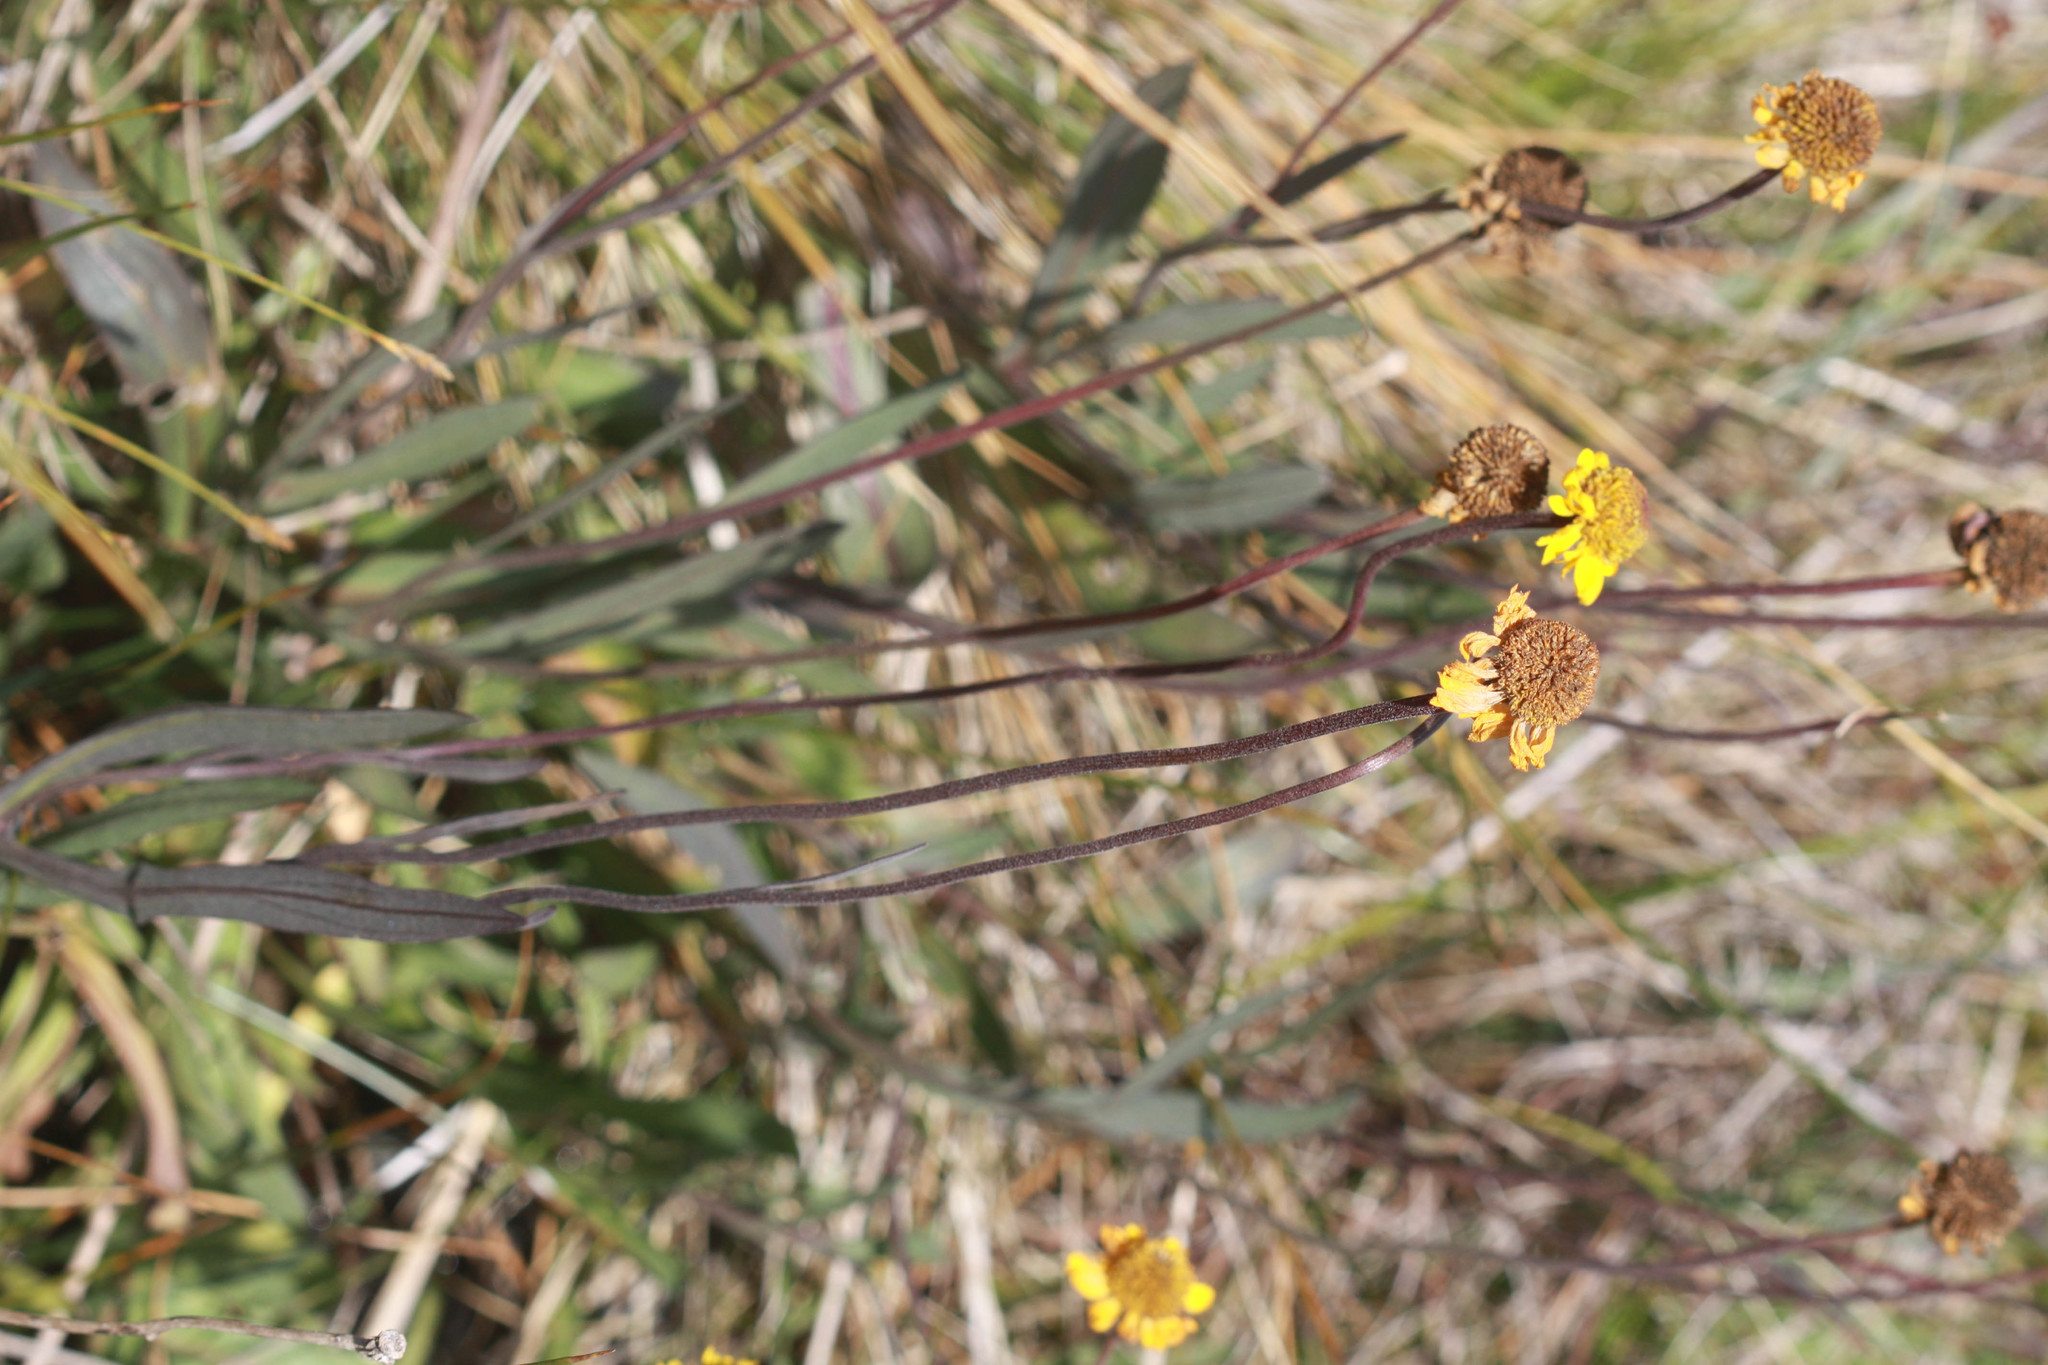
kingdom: Plantae
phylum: Tracheophyta
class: Magnoliopsida
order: Asterales
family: Asteraceae
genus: Helenium
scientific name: Helenium bigelovii
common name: Bigelow's sneezeweed
